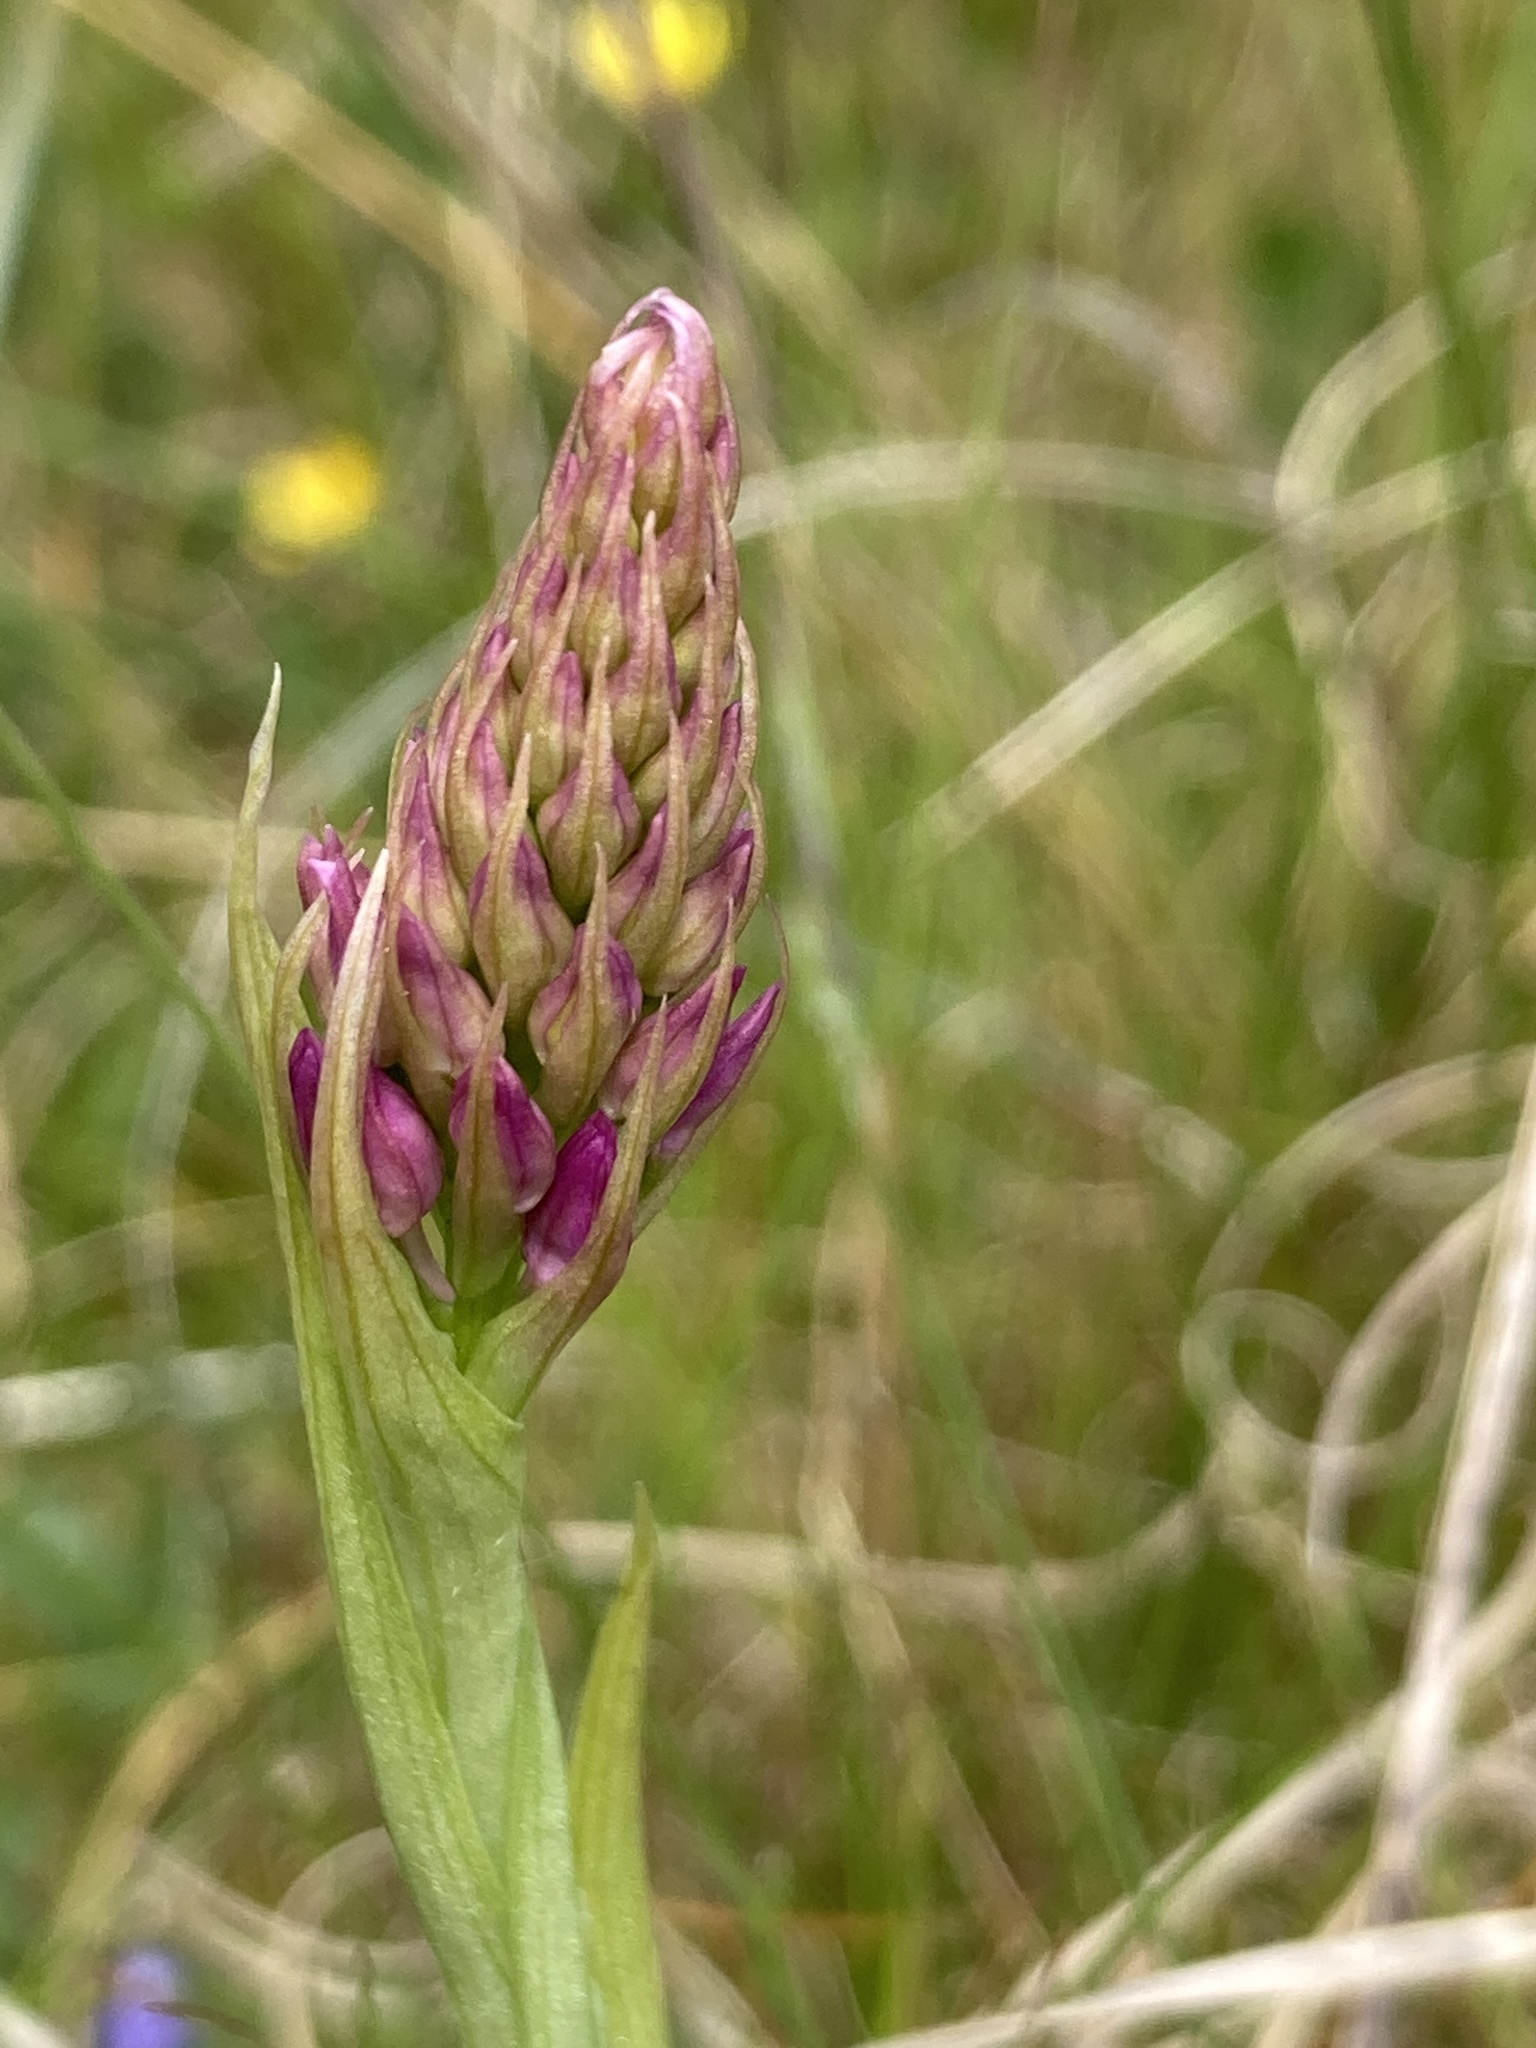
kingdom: Plantae
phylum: Tracheophyta
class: Liliopsida
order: Asparagales
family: Orchidaceae
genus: Anacamptis
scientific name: Anacamptis pyramidalis
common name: Pyramidal orchid
